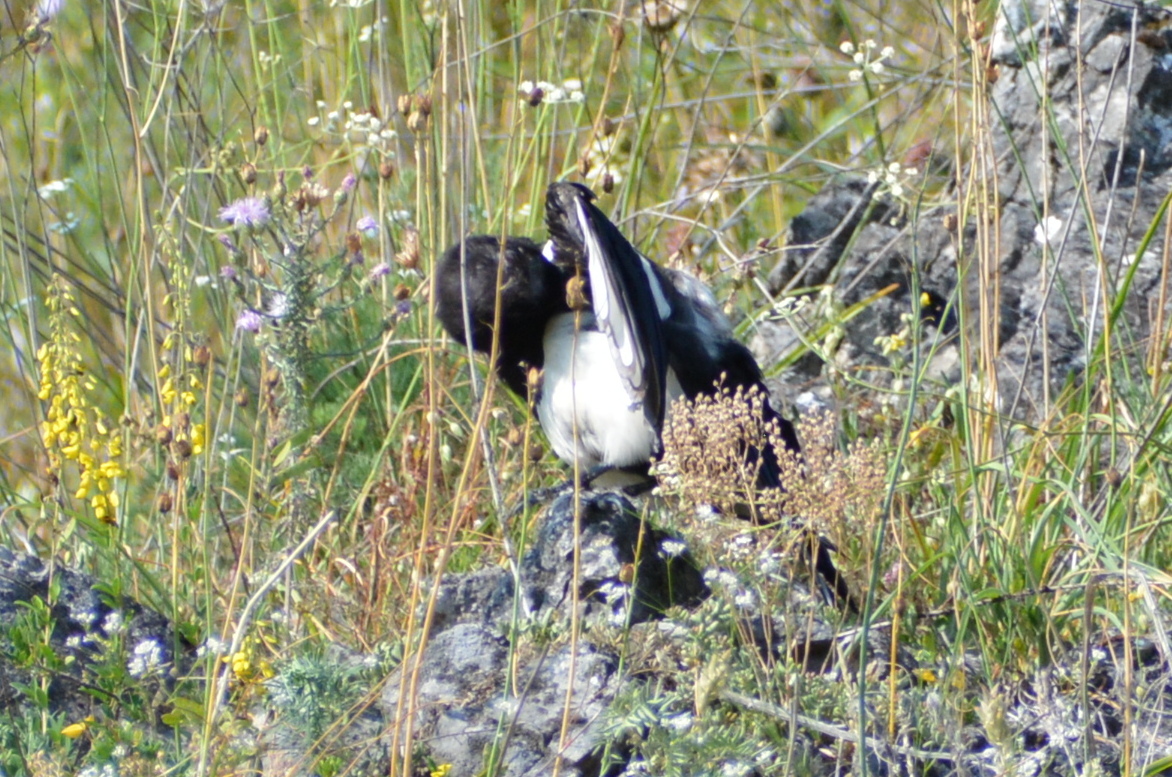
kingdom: Animalia
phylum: Chordata
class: Aves
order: Passeriformes
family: Corvidae
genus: Pica
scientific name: Pica pica
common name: Eurasian magpie
